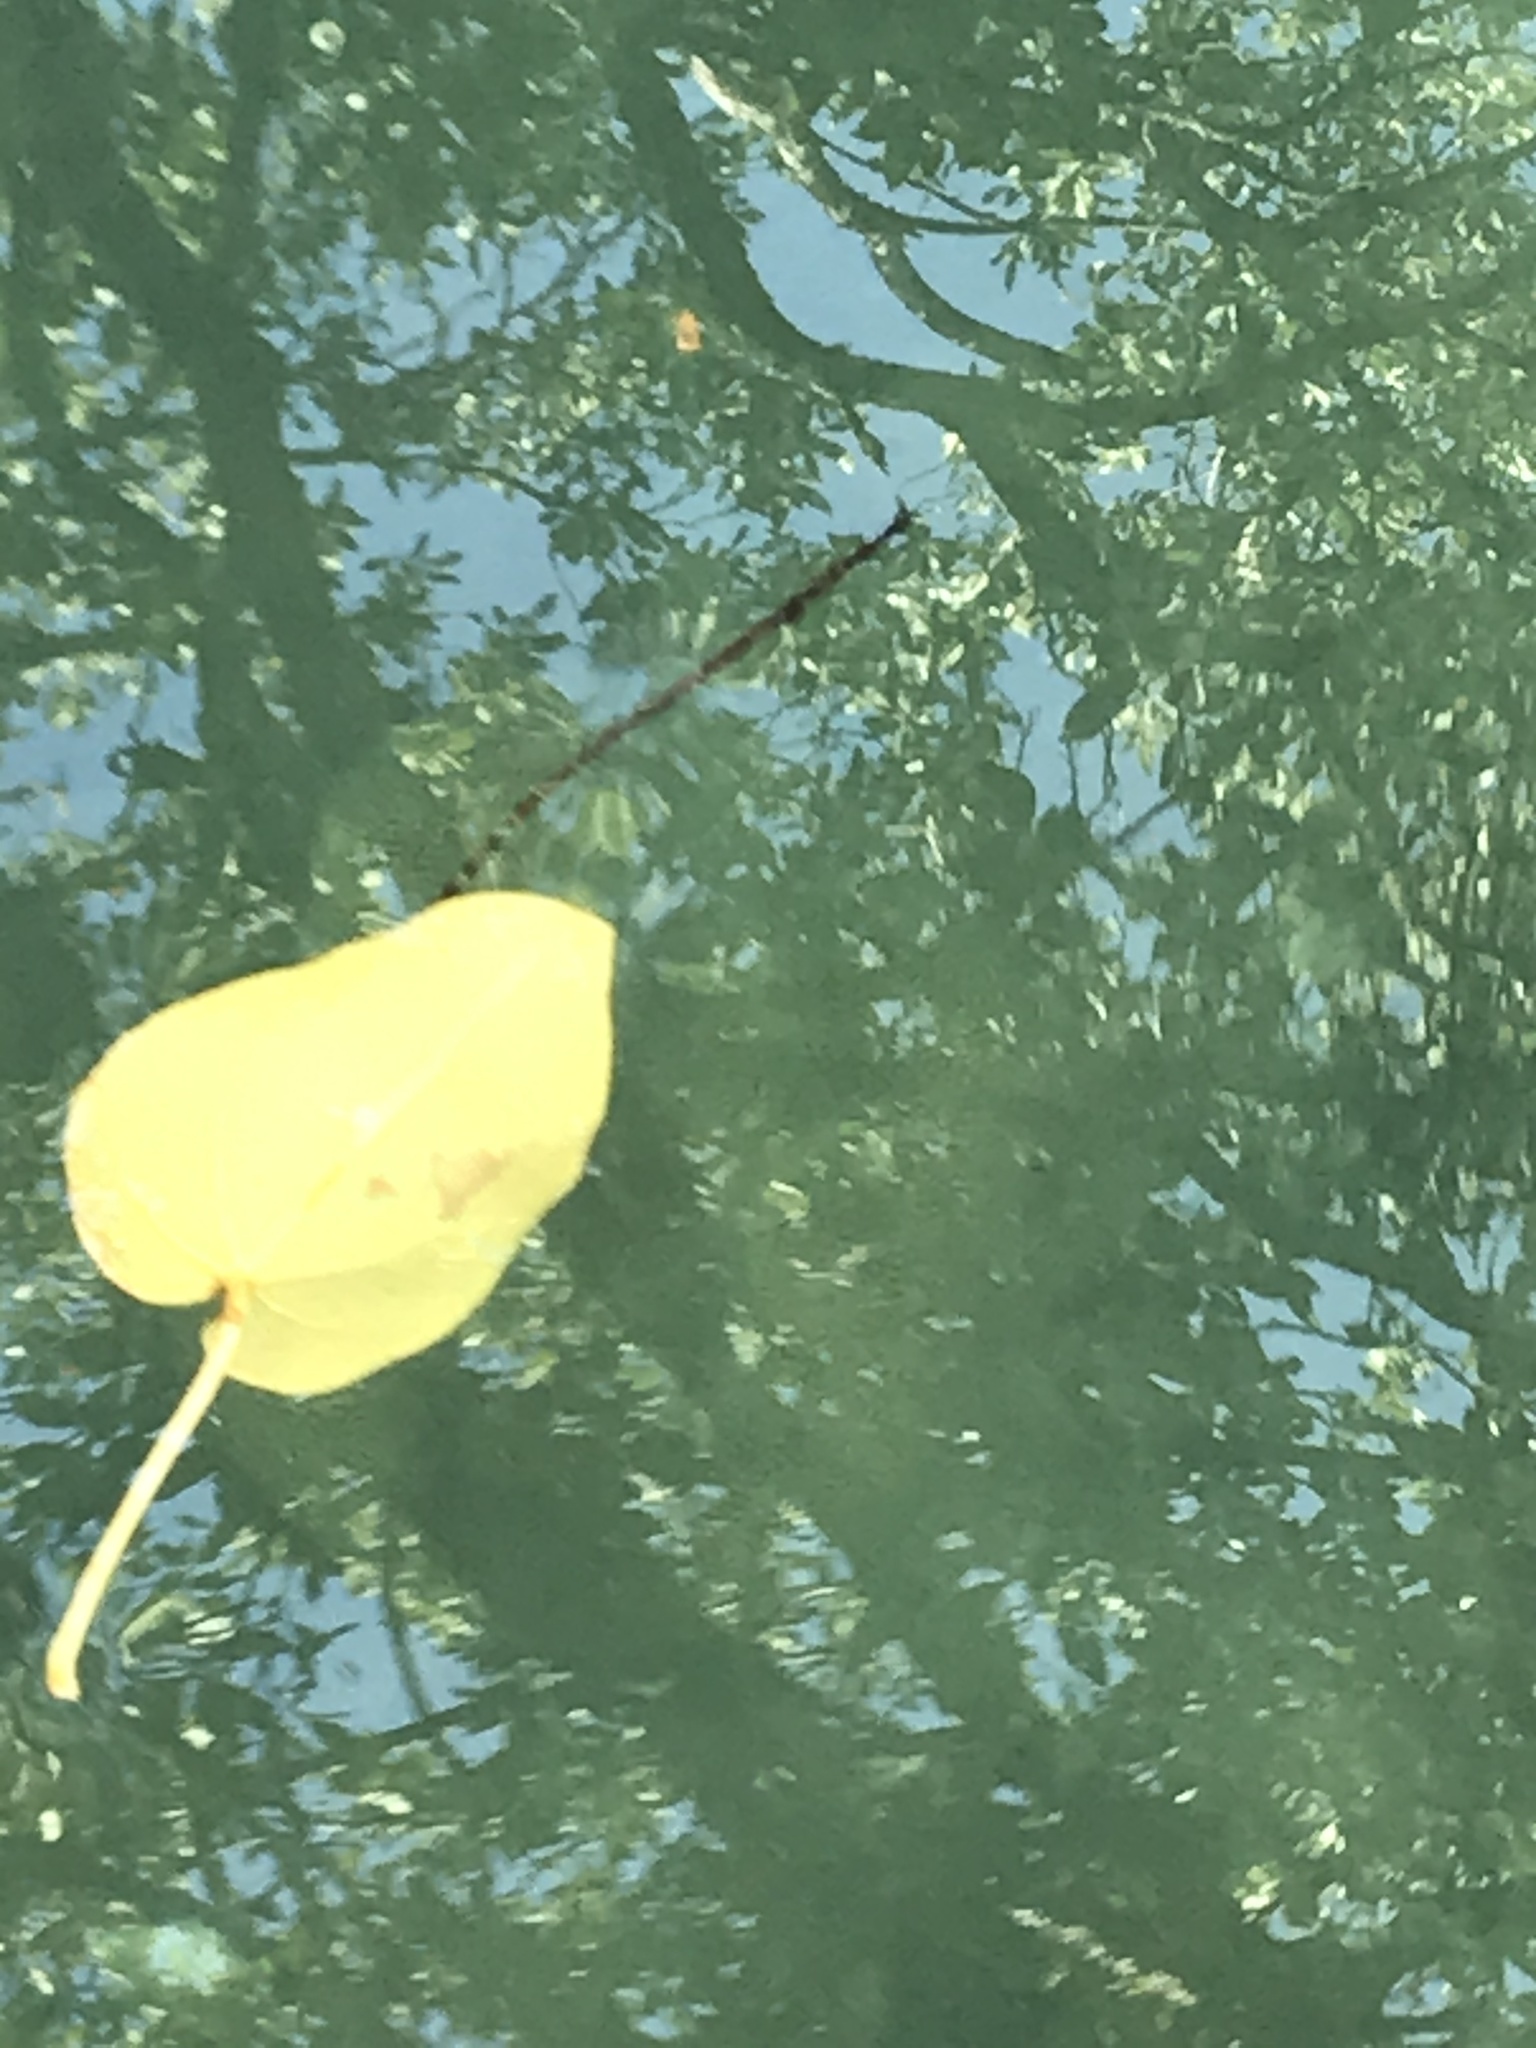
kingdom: Animalia
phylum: Chordata
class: Elasmobranchii
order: Myliobatiformes
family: Urotrygonidae
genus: Urobatis
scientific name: Urobatis jamaicensis
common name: Yellow stingray
